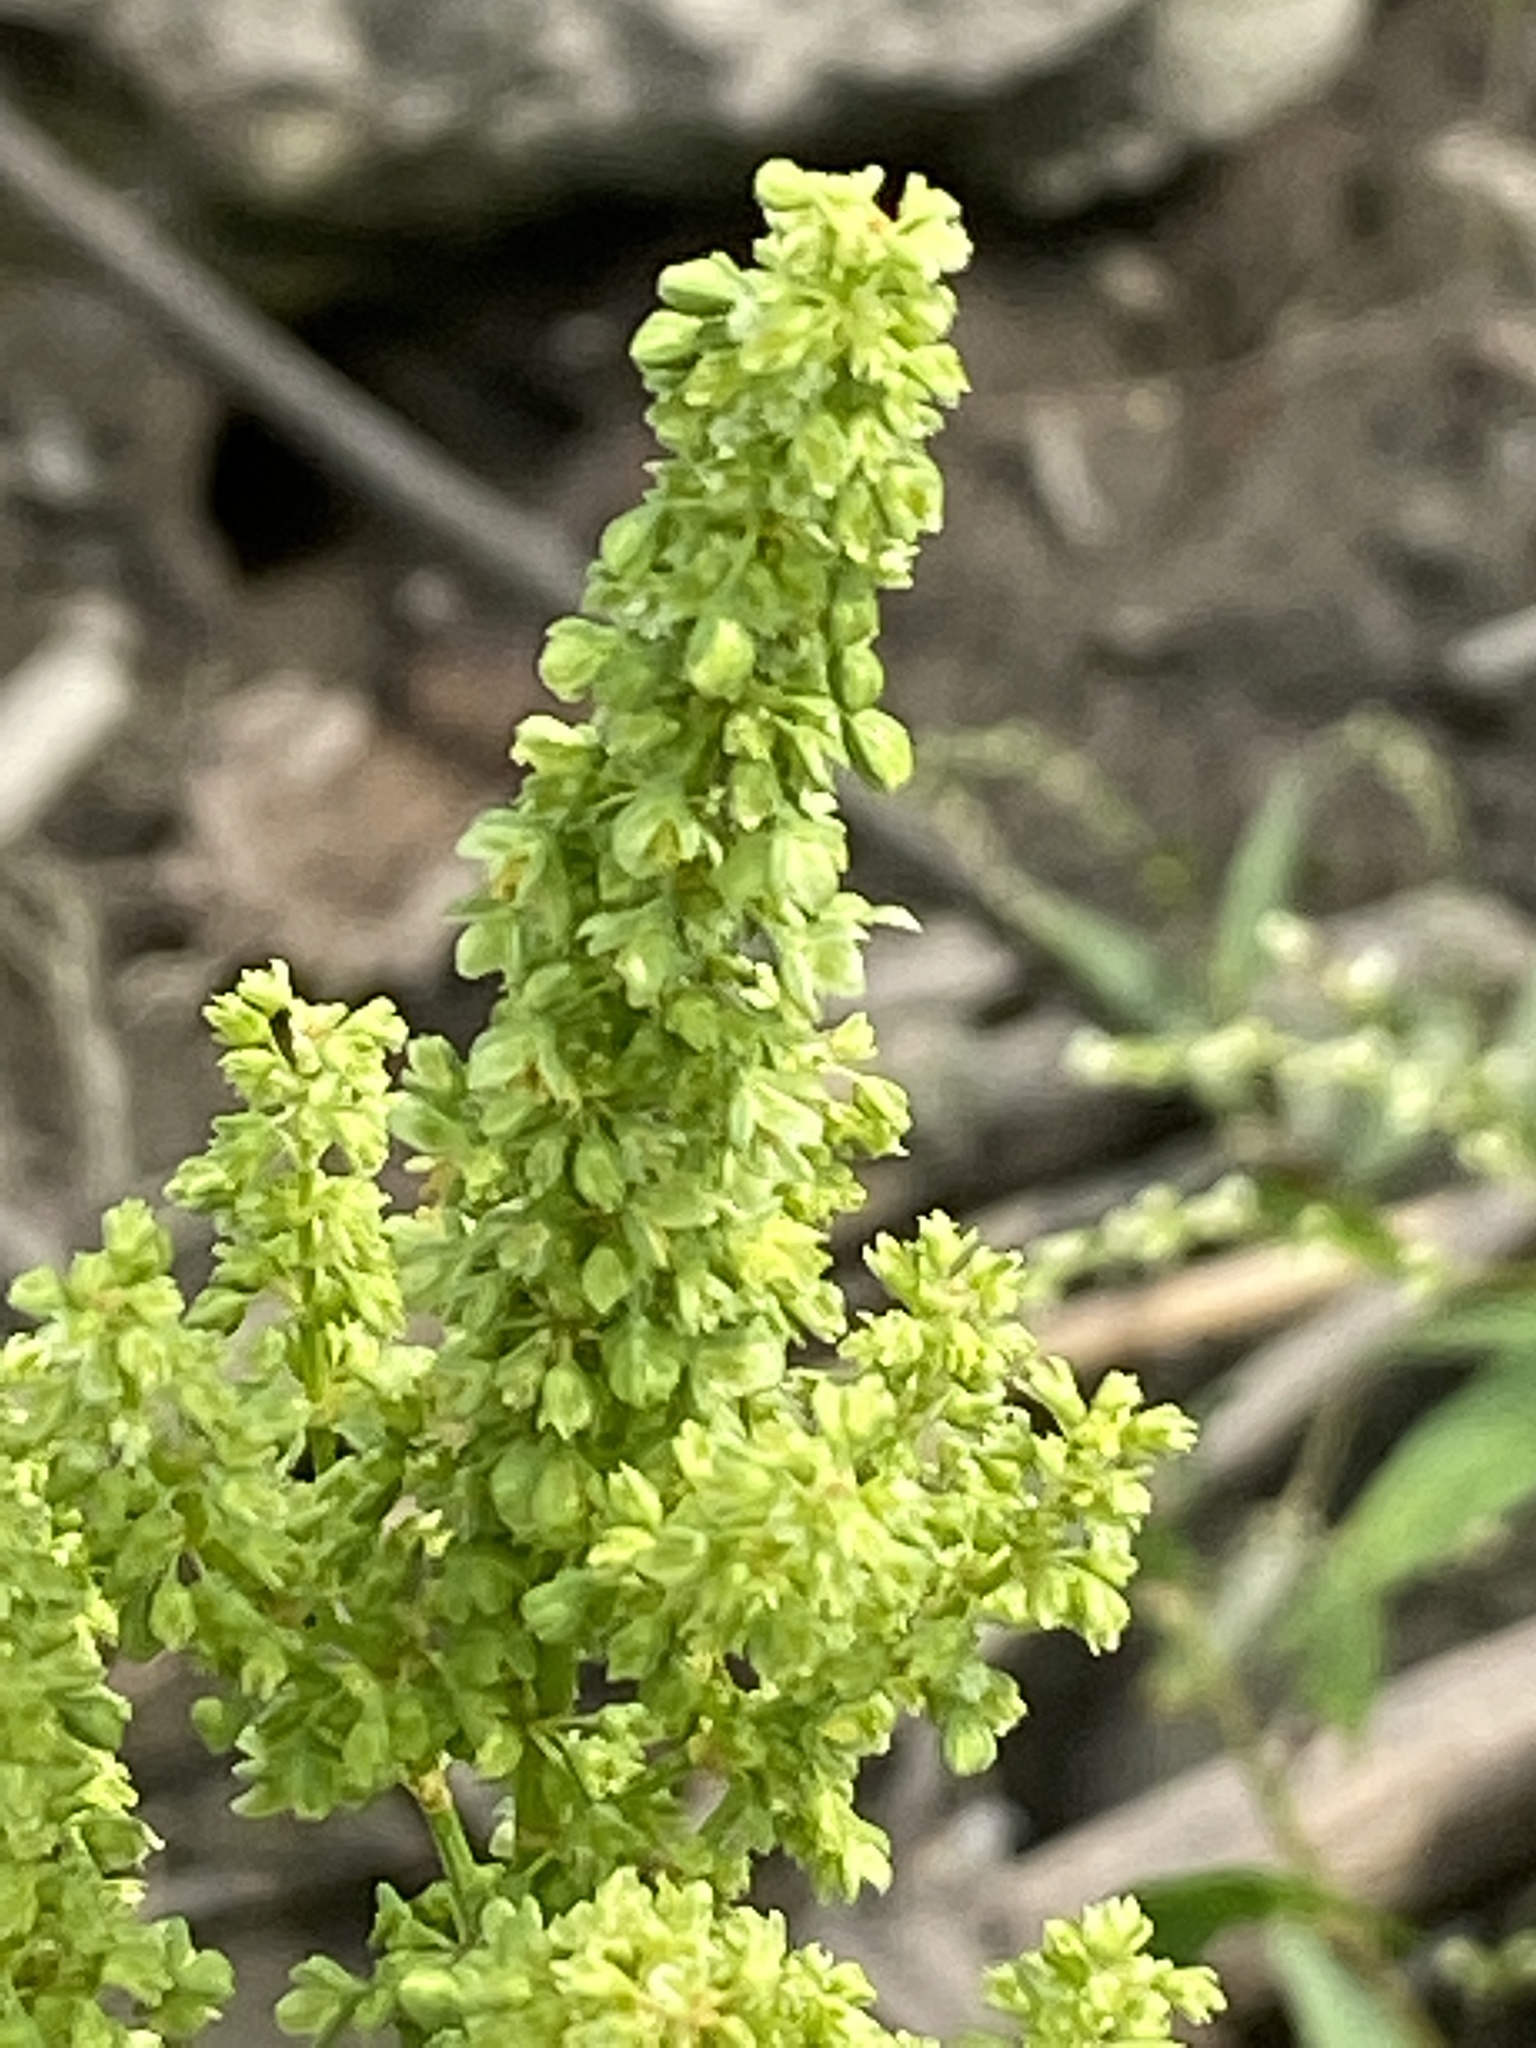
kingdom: Plantae
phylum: Tracheophyta
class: Magnoliopsida
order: Caryophyllales
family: Polygonaceae
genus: Rumex
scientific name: Rumex triangulivalvis
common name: Triangular-valve dock
